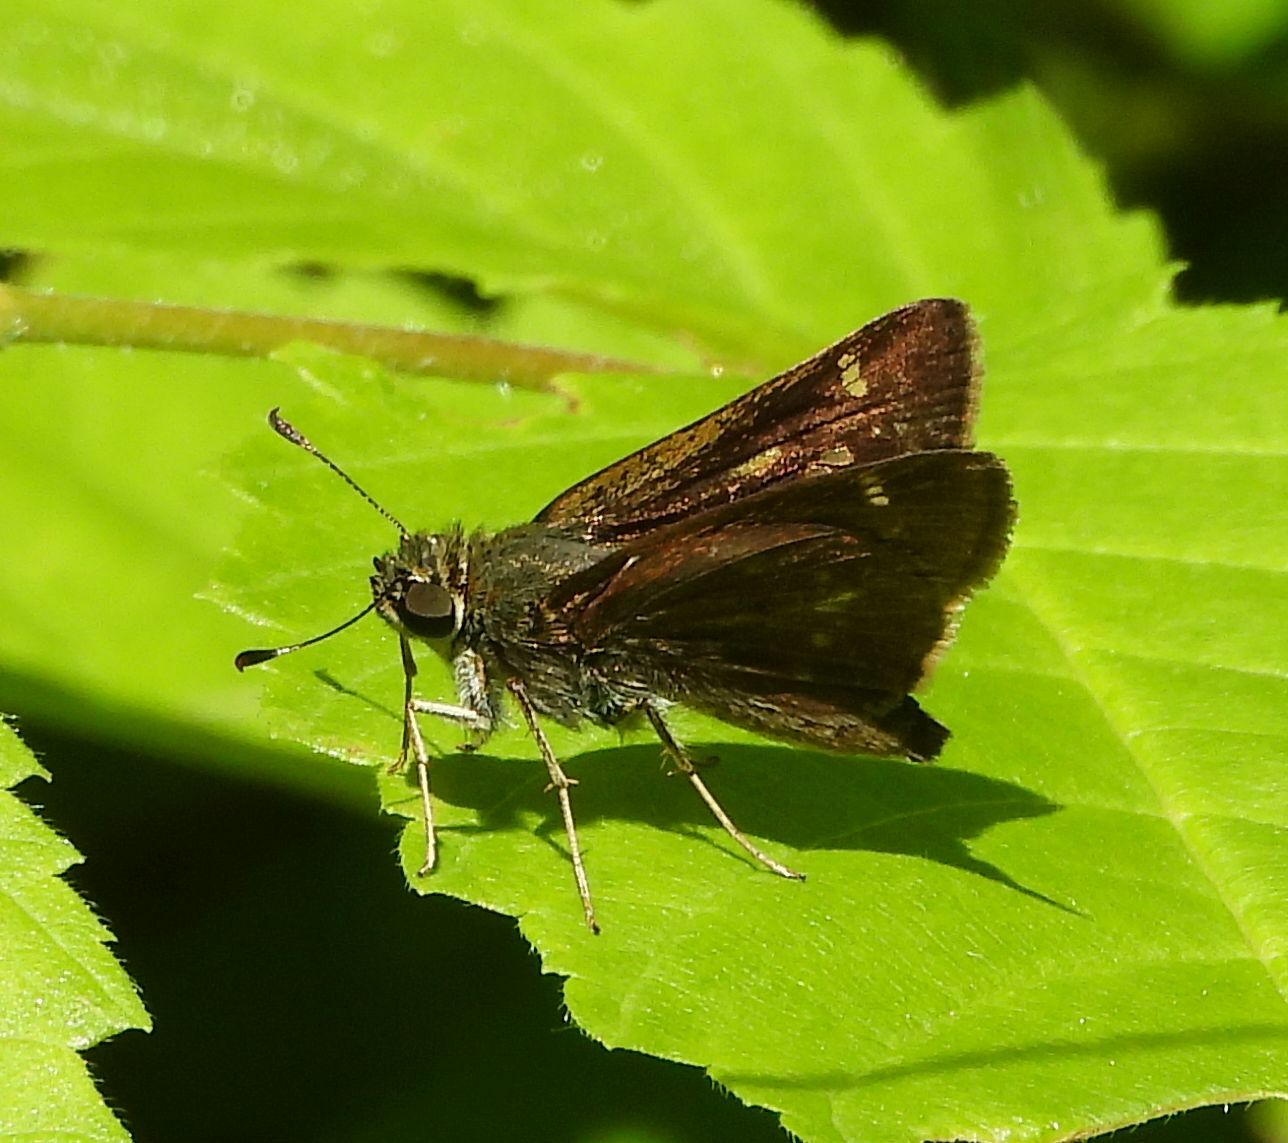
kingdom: Animalia
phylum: Arthropoda
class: Insecta
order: Lepidoptera
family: Hesperiidae
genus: Vernia
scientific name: Vernia verna
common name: Little glassywing
